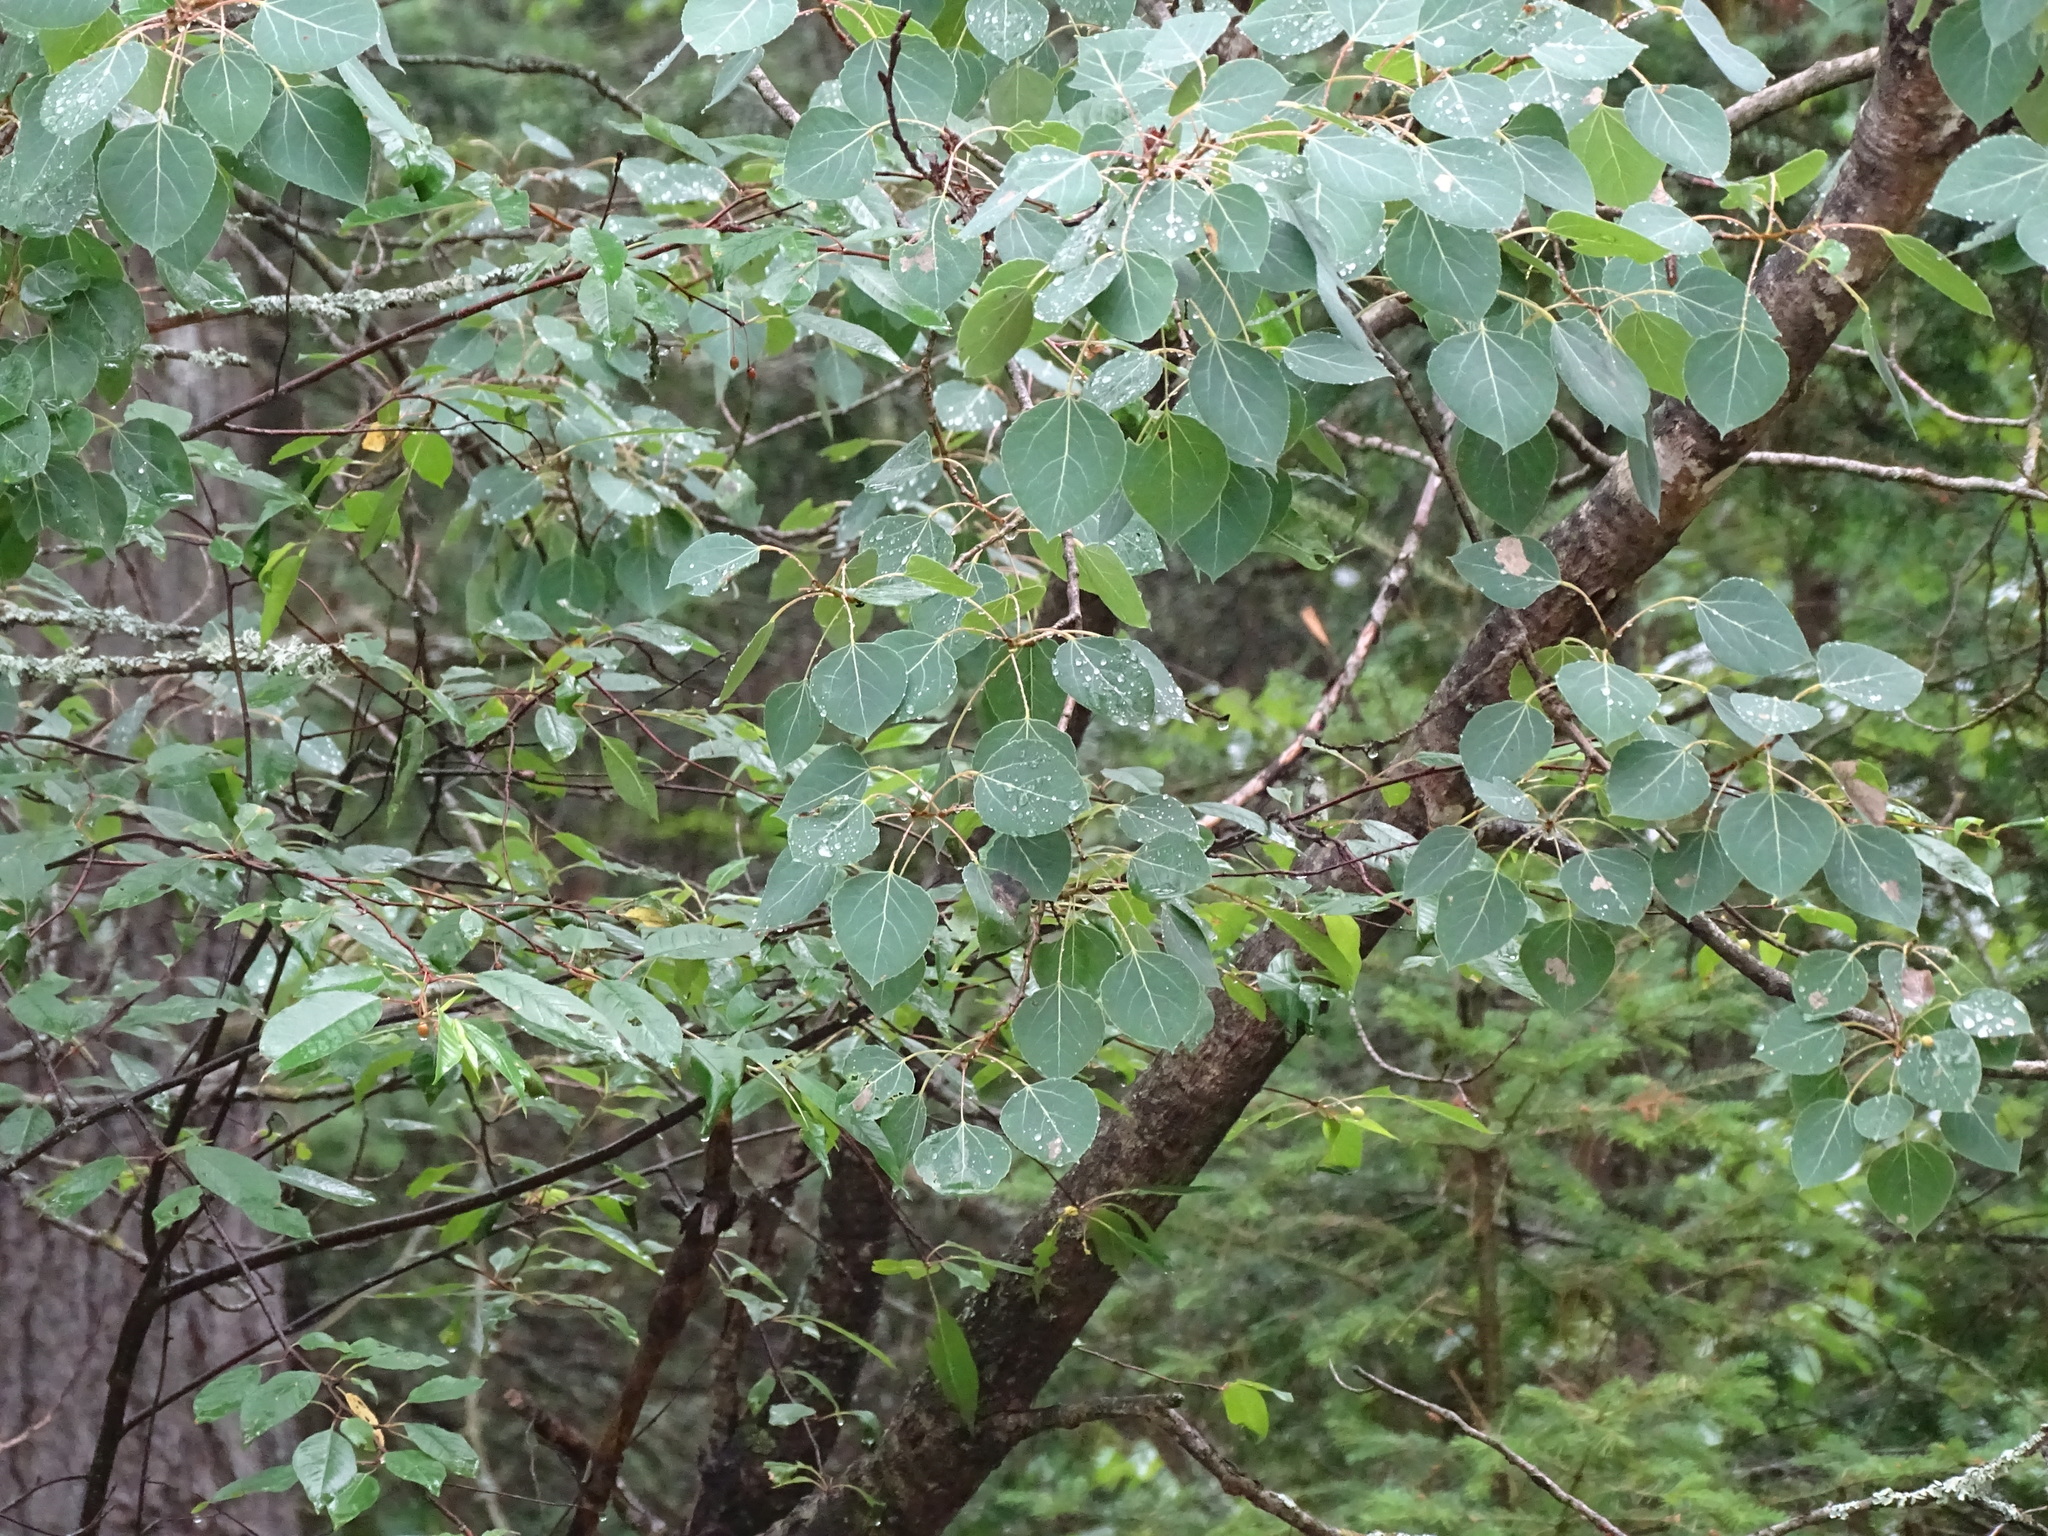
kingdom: Plantae
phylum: Tracheophyta
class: Magnoliopsida
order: Malpighiales
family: Salicaceae
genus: Populus
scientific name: Populus tremuloides
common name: Quaking aspen
